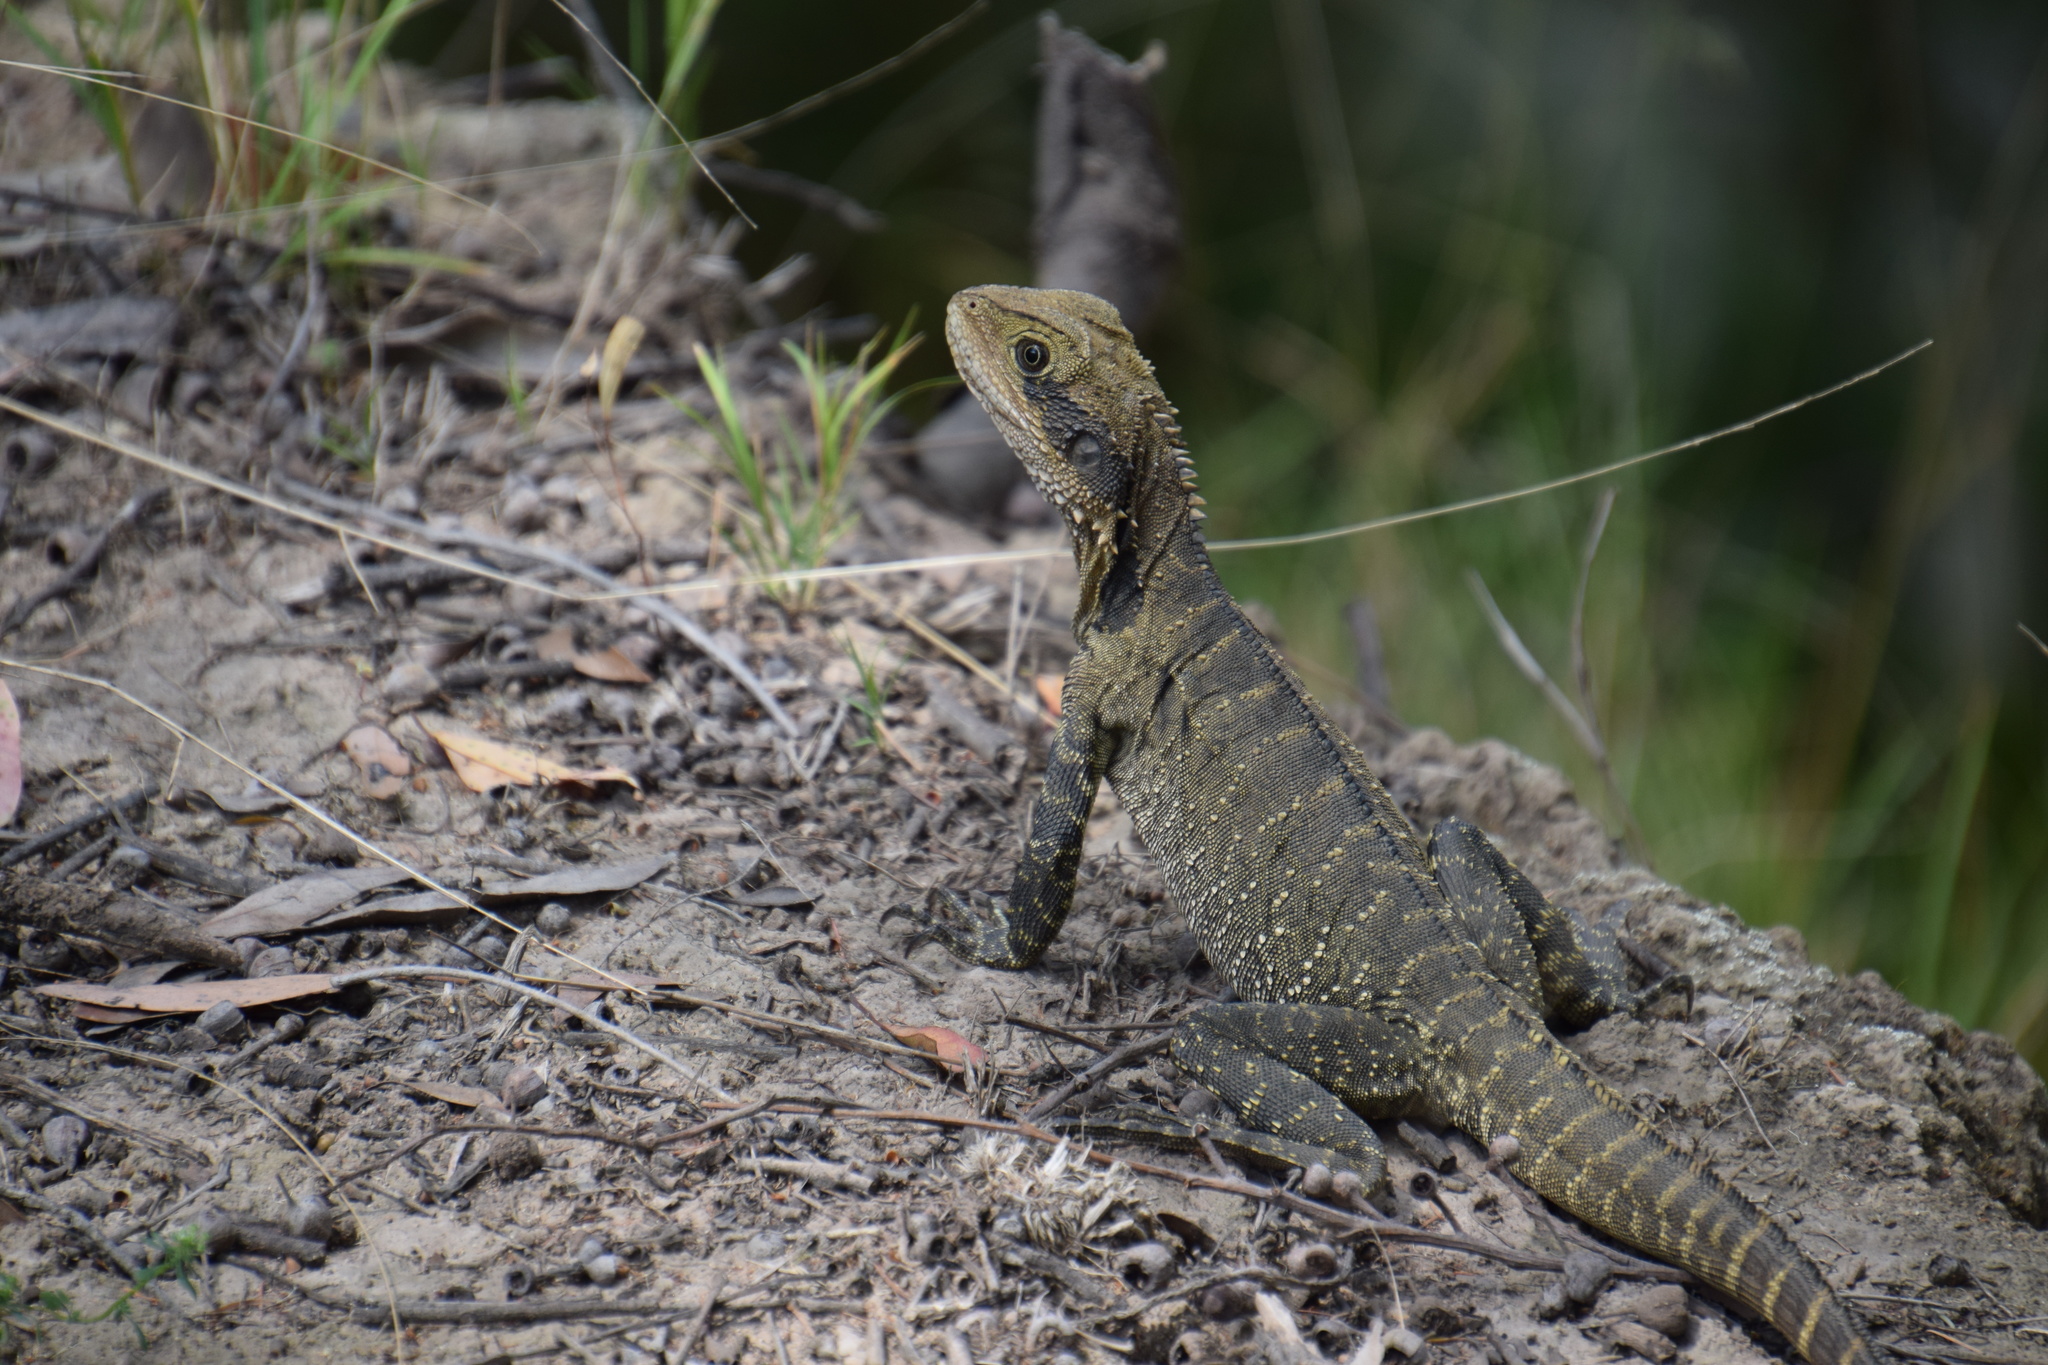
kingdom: Animalia
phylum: Chordata
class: Squamata
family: Agamidae
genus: Intellagama
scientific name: Intellagama lesueurii
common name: Eastern water dragon
